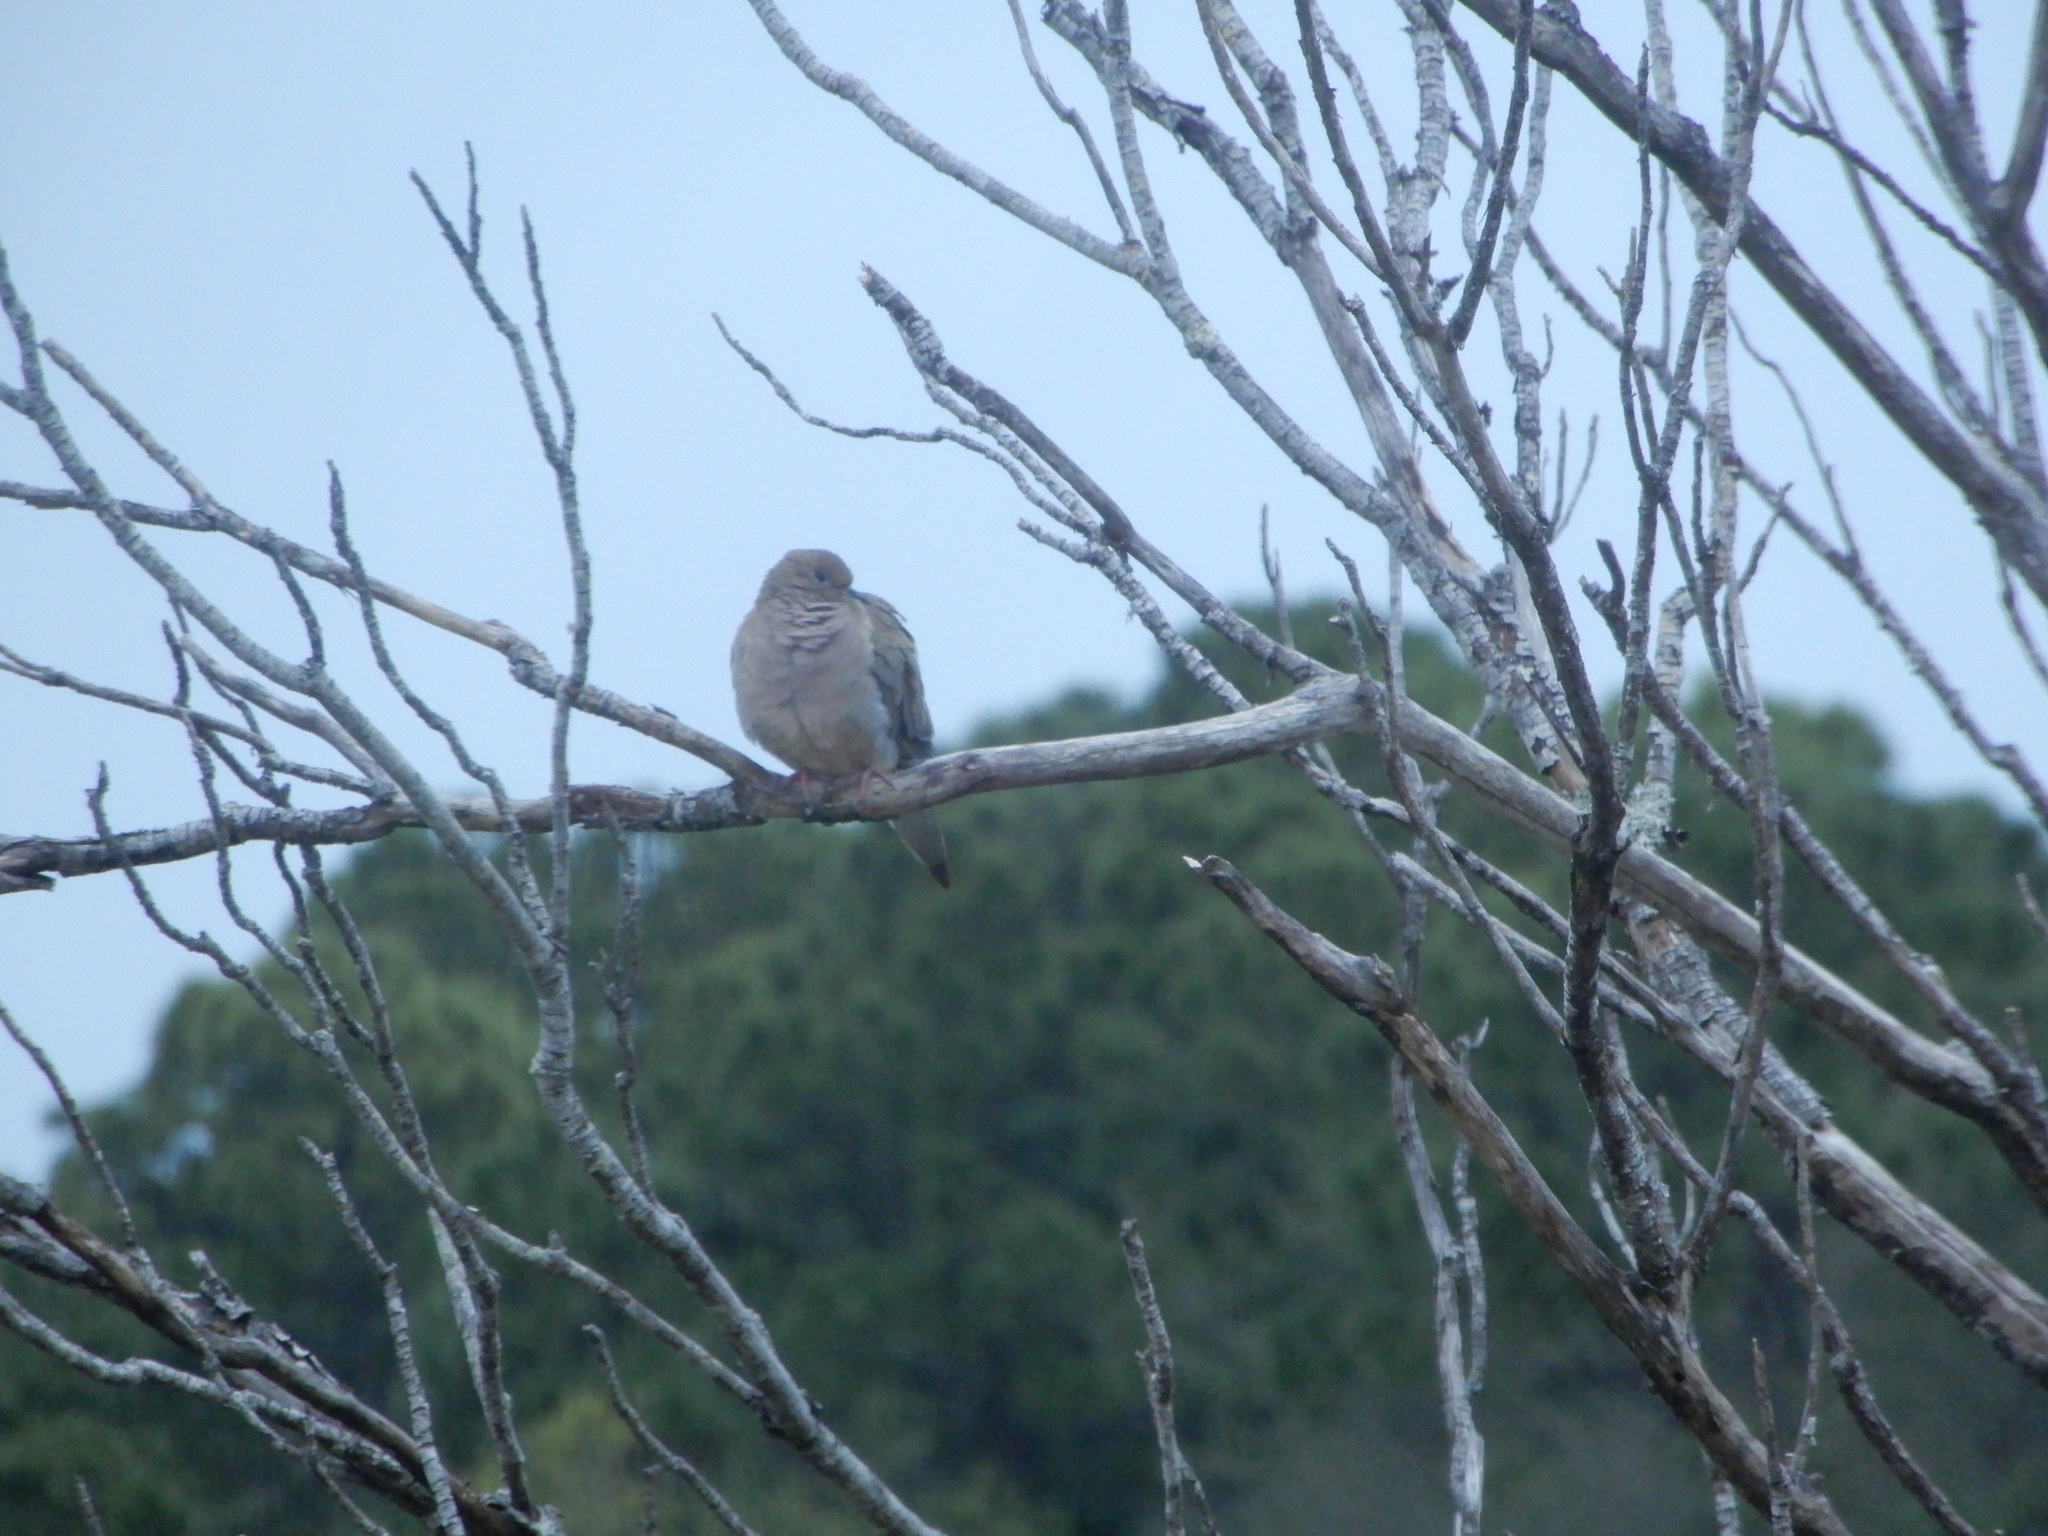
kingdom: Animalia
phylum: Chordata
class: Aves
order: Columbiformes
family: Columbidae
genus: Zenaida
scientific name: Zenaida macroura
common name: Mourning dove
